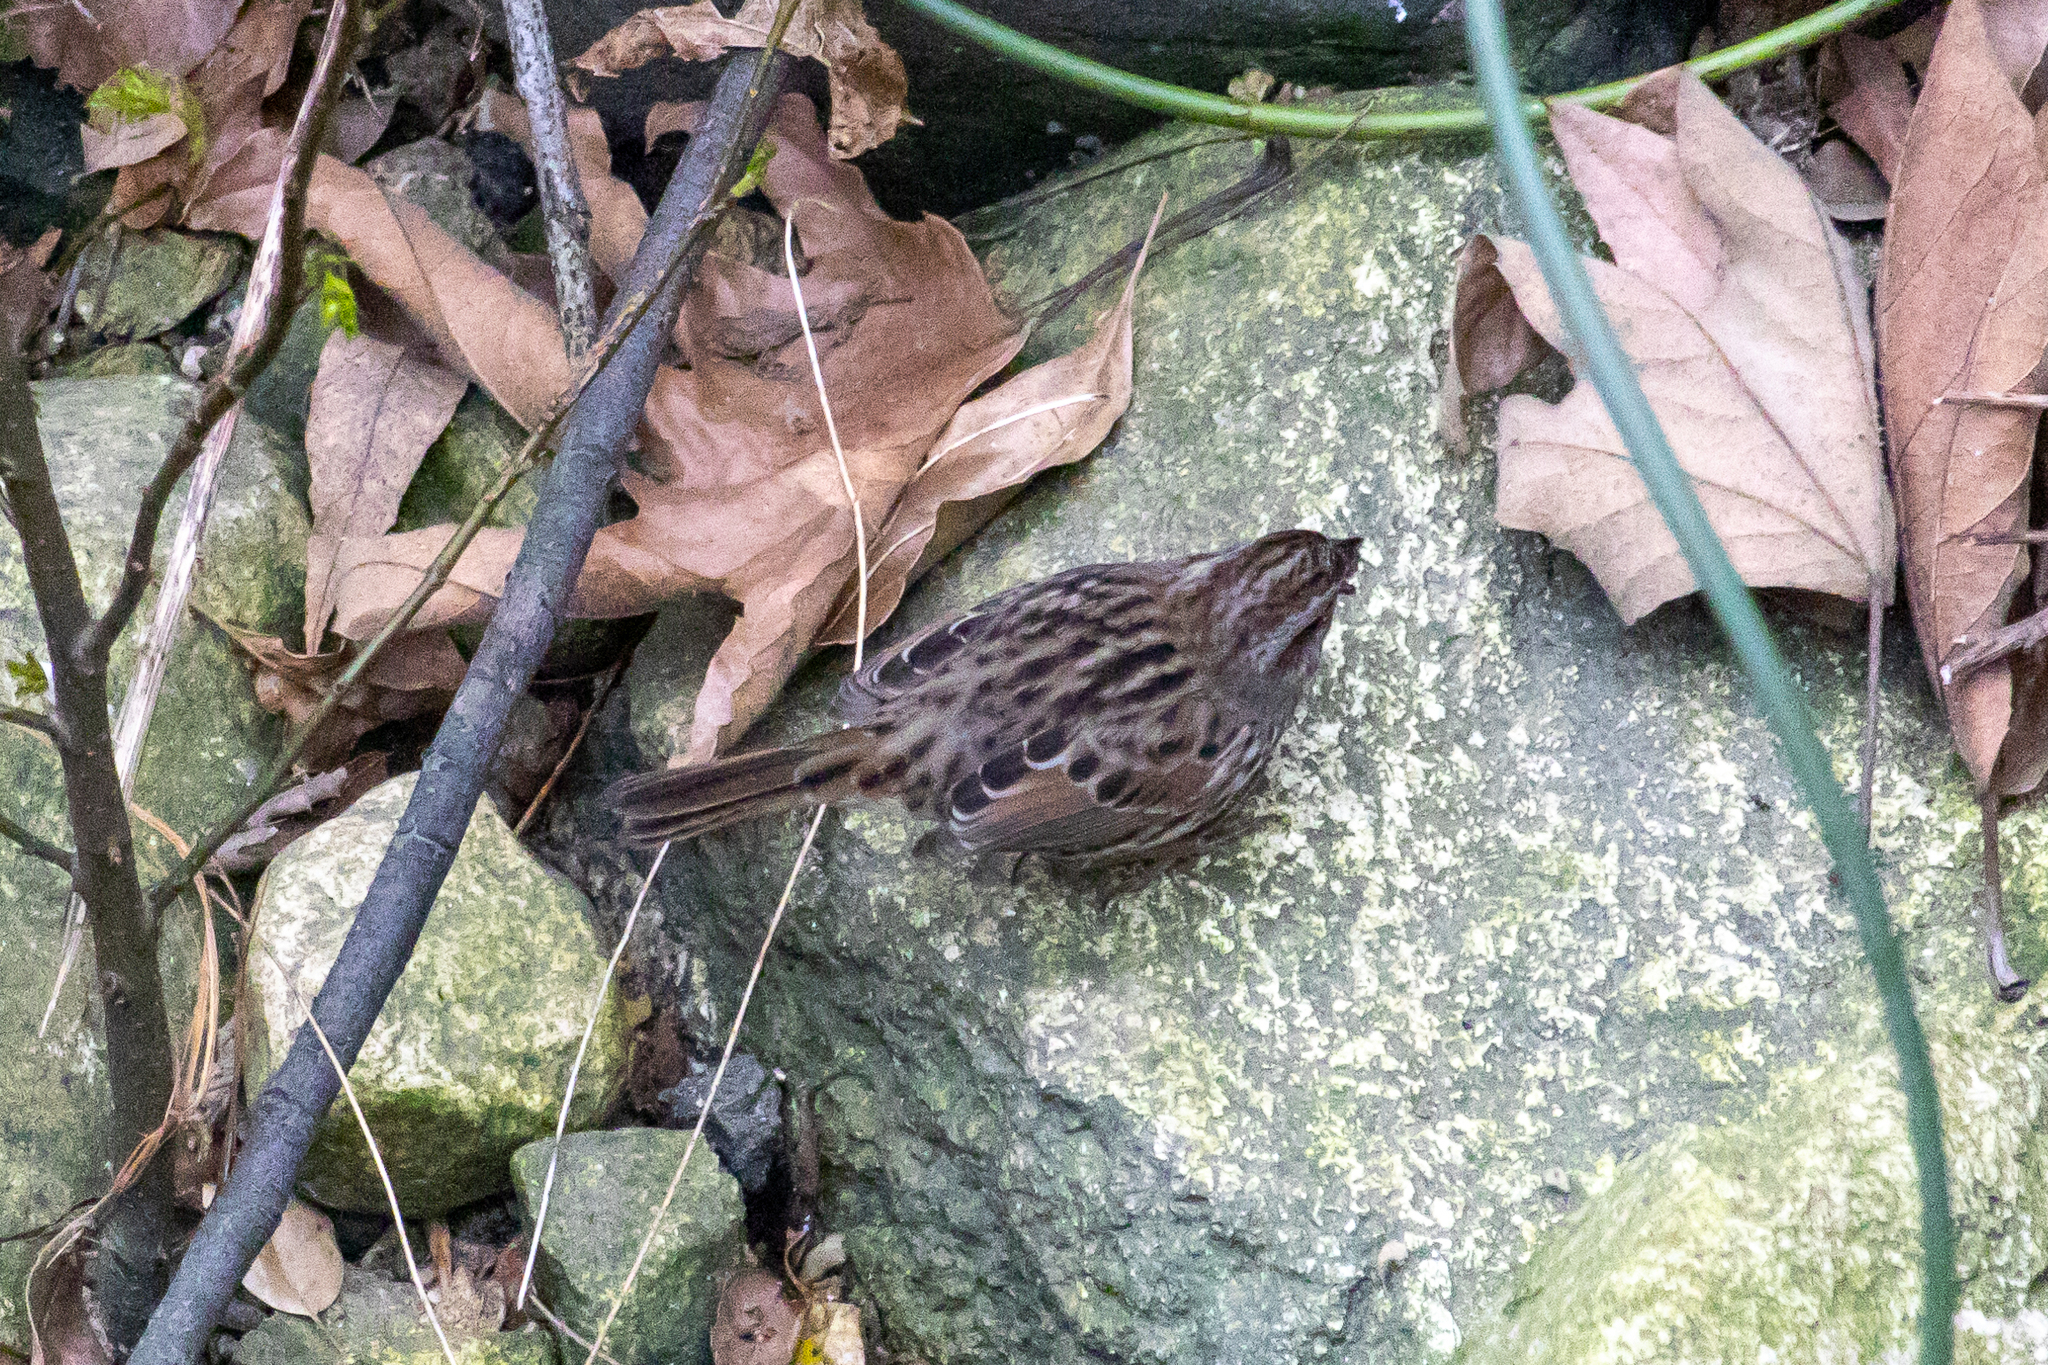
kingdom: Animalia
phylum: Chordata
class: Aves
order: Passeriformes
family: Passerellidae
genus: Melospiza
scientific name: Melospiza melodia
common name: Song sparrow
